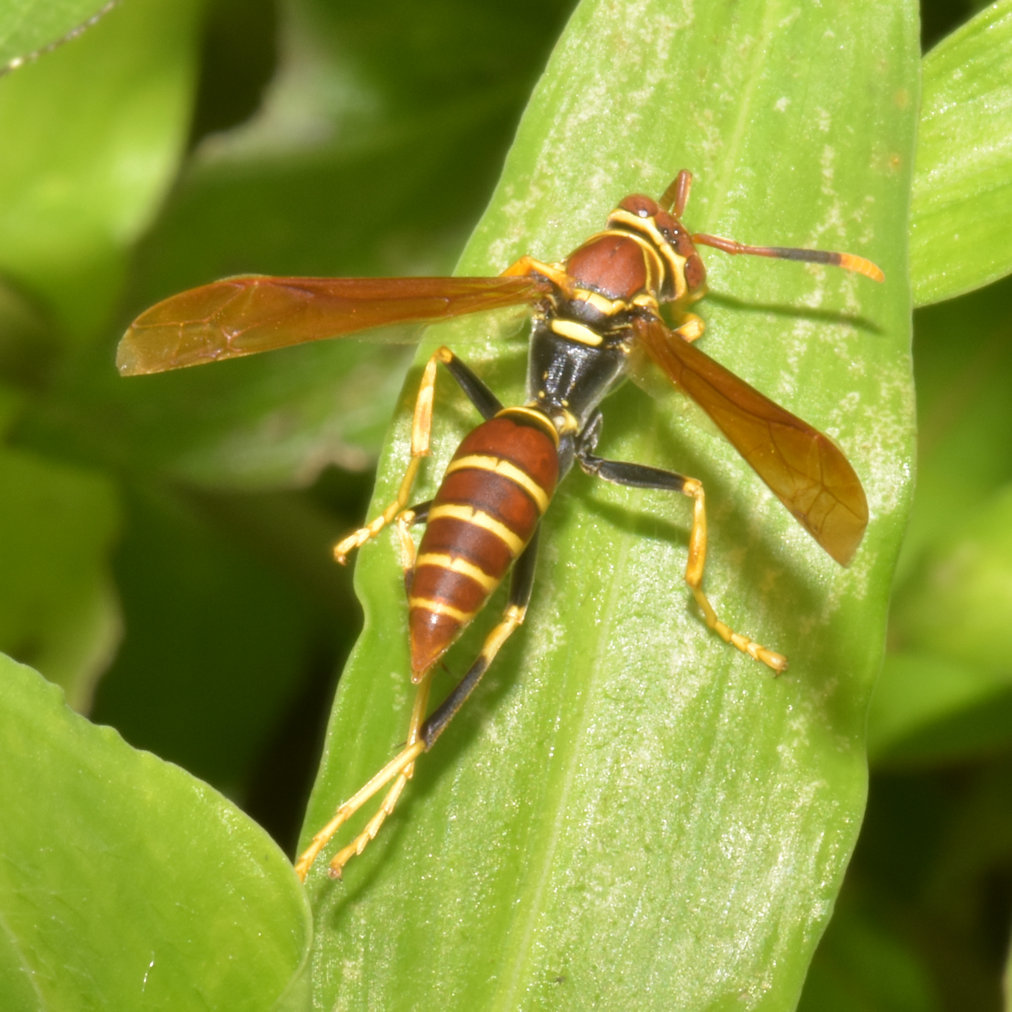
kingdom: Animalia
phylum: Arthropoda
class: Insecta
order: Hymenoptera
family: Eumenidae
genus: Polistes
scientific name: Polistes crinitus
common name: Jack spaniard
